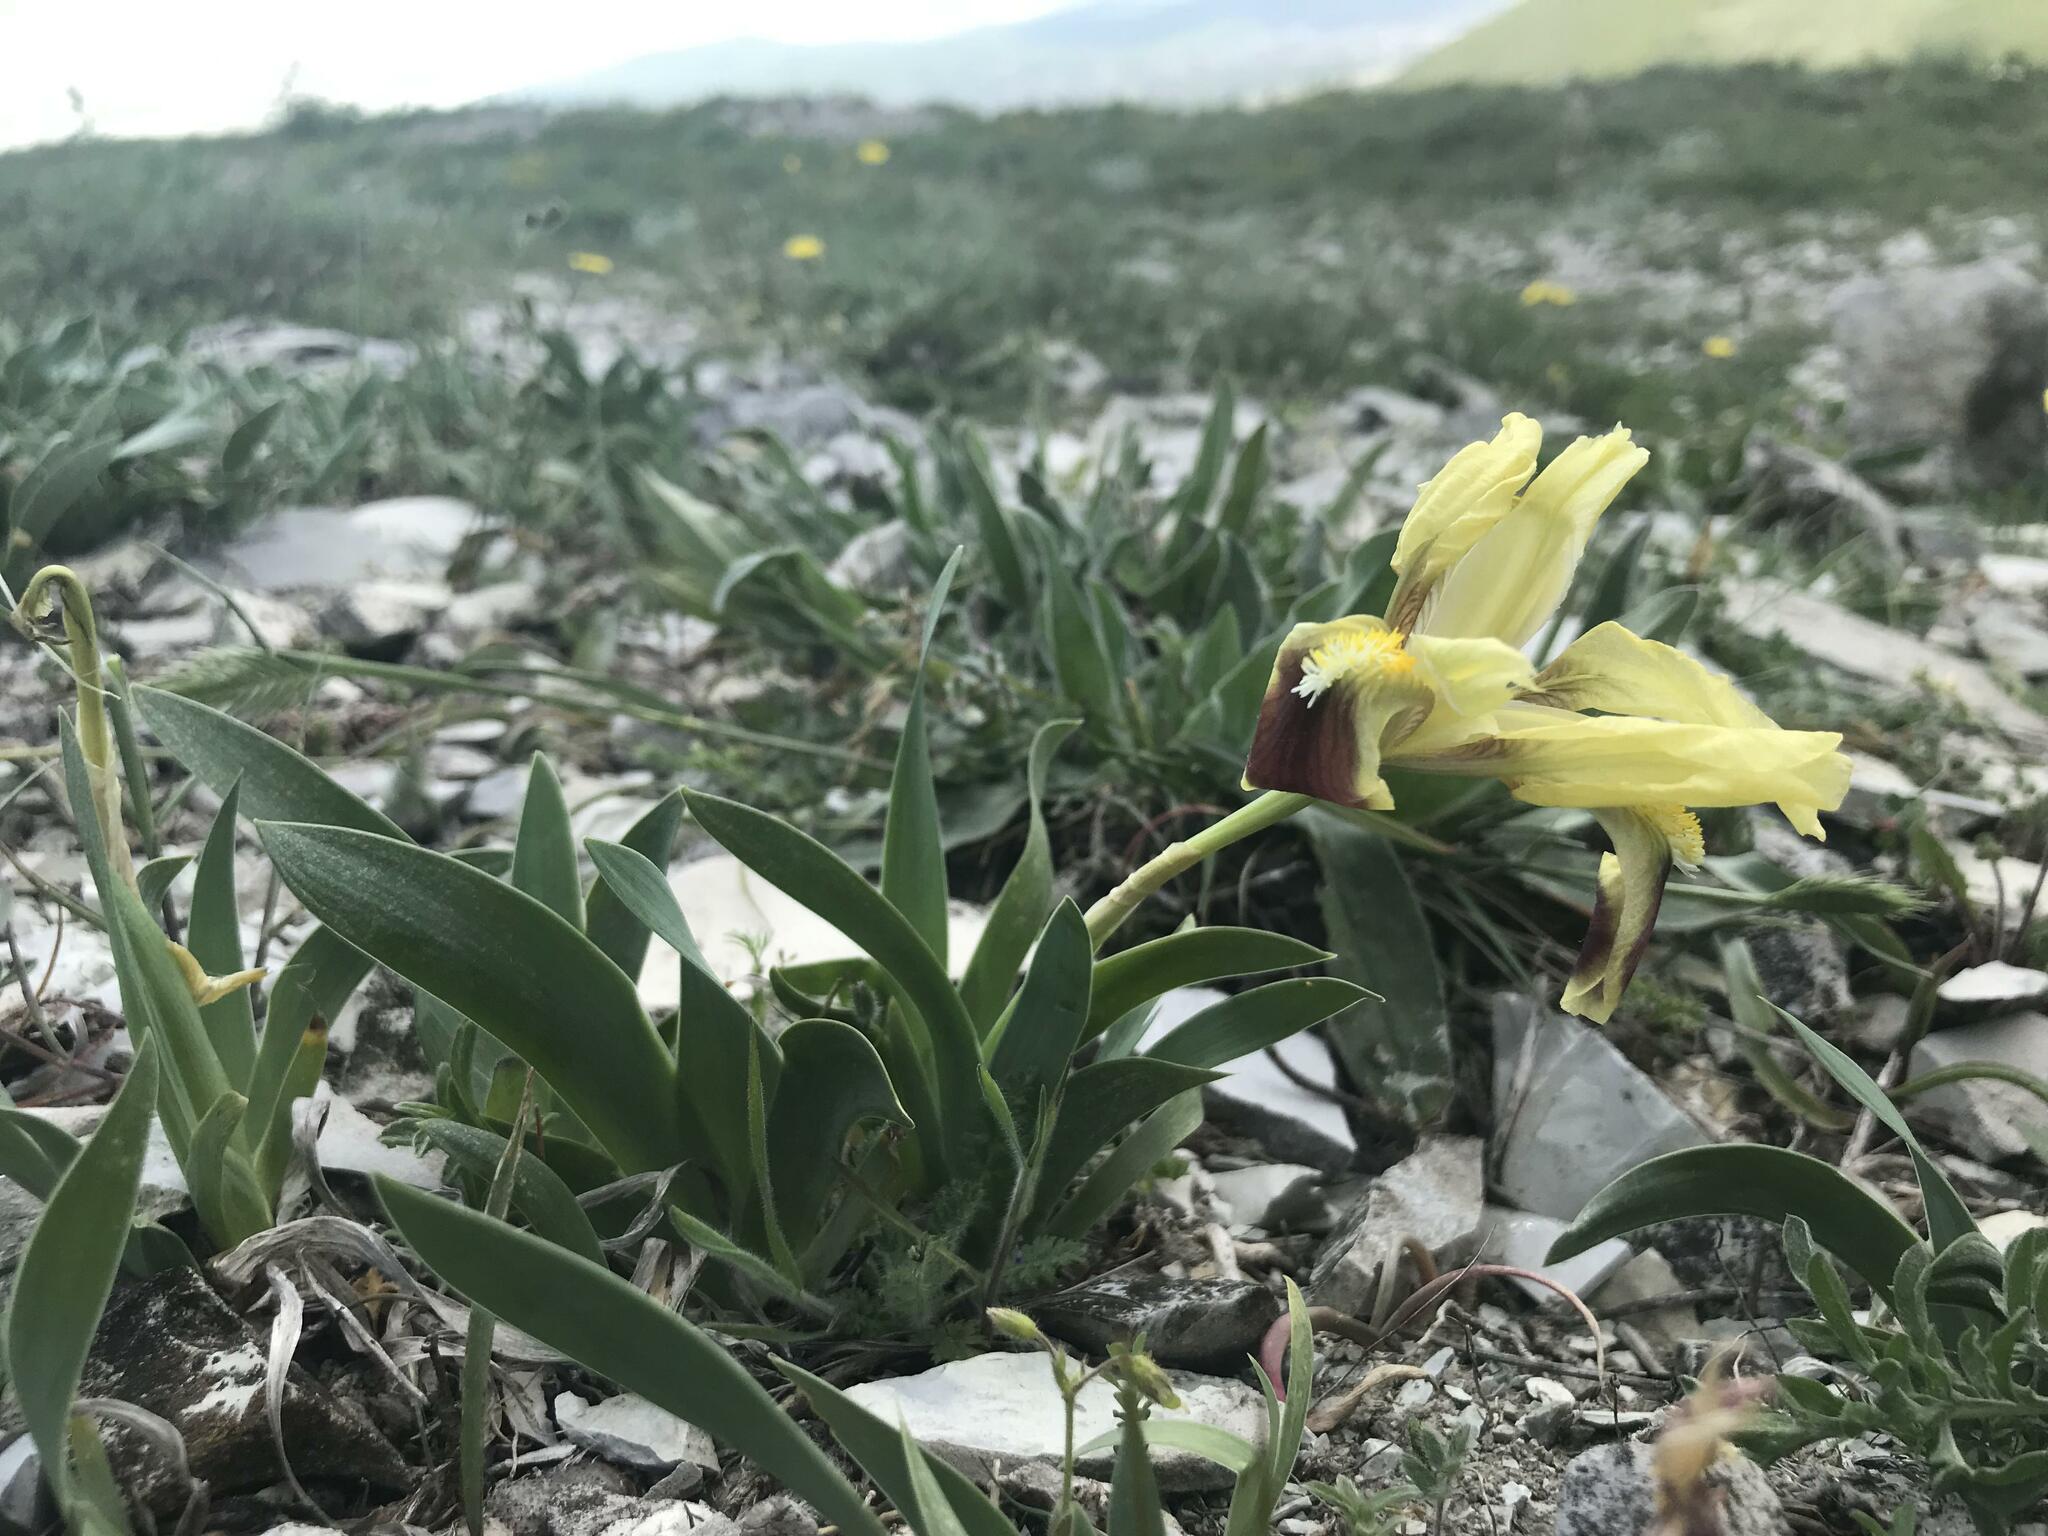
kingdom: Plantae
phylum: Tracheophyta
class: Liliopsida
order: Asparagales
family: Iridaceae
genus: Iris
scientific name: Iris pumila
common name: Dwarf iris
